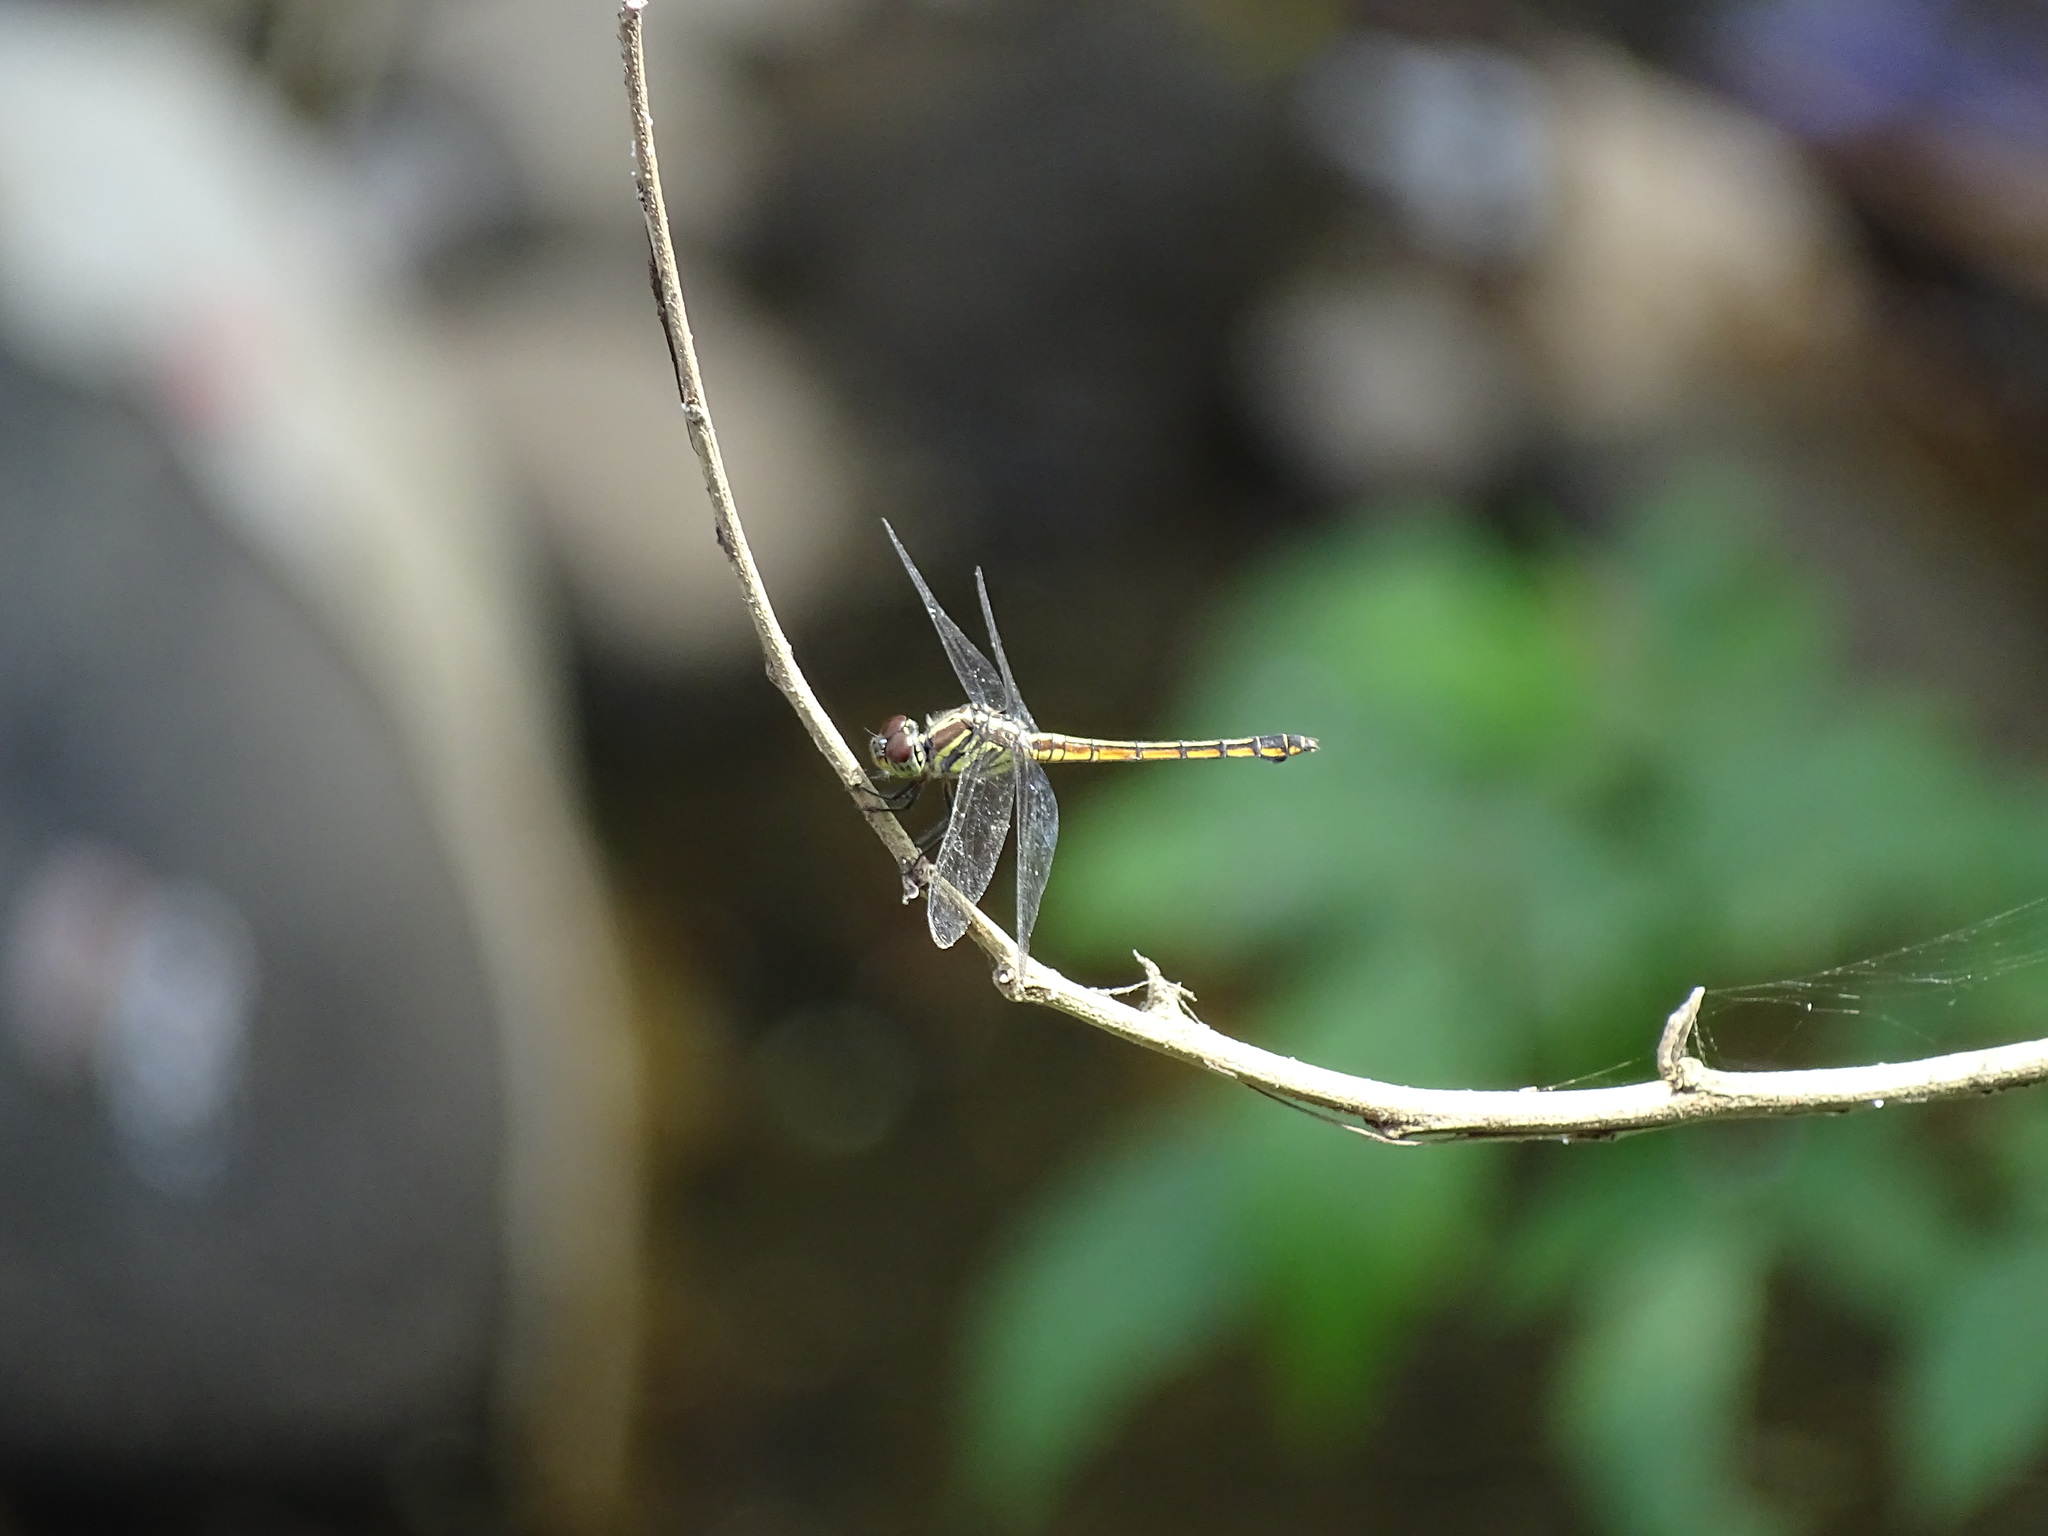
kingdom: Animalia
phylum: Arthropoda
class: Insecta
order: Odonata
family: Libellulidae
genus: Potamarcha
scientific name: Potamarcha congener
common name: Blue chaser
